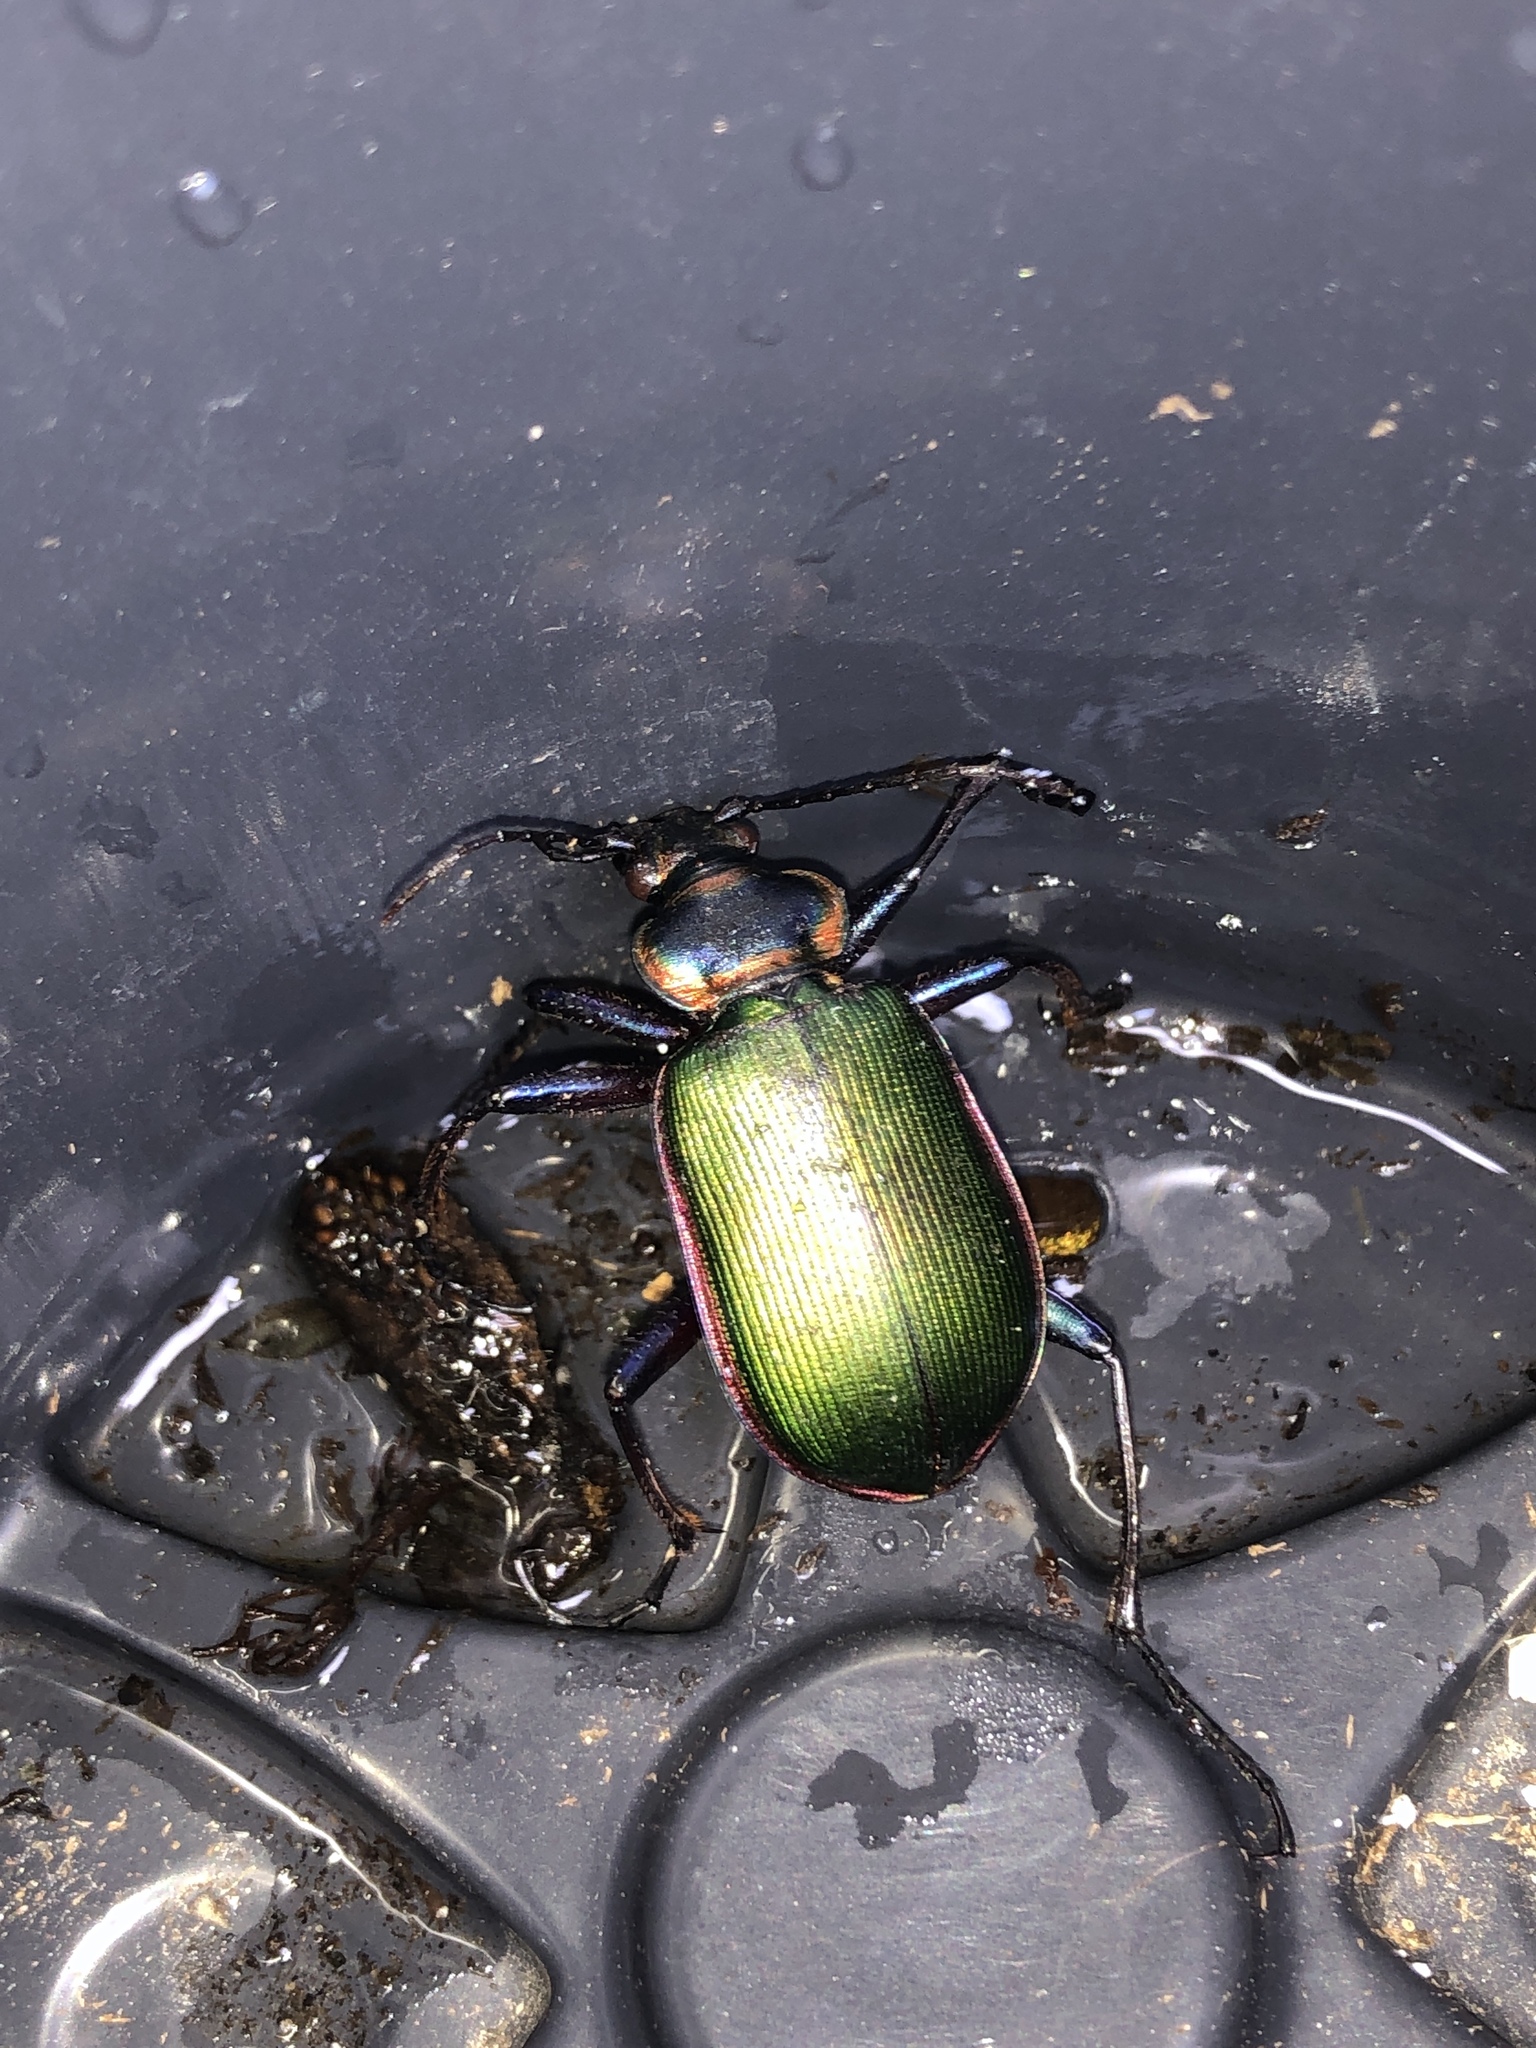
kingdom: Animalia
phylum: Arthropoda
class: Insecta
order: Coleoptera
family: Carabidae
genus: Calosoma
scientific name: Calosoma scrutator
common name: Fiery searcher beetle
